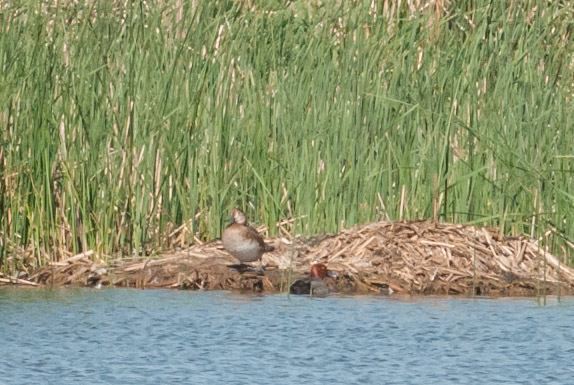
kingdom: Animalia
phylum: Chordata
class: Aves
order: Anseriformes
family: Anatidae
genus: Aythya
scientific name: Aythya americana
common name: Redhead
